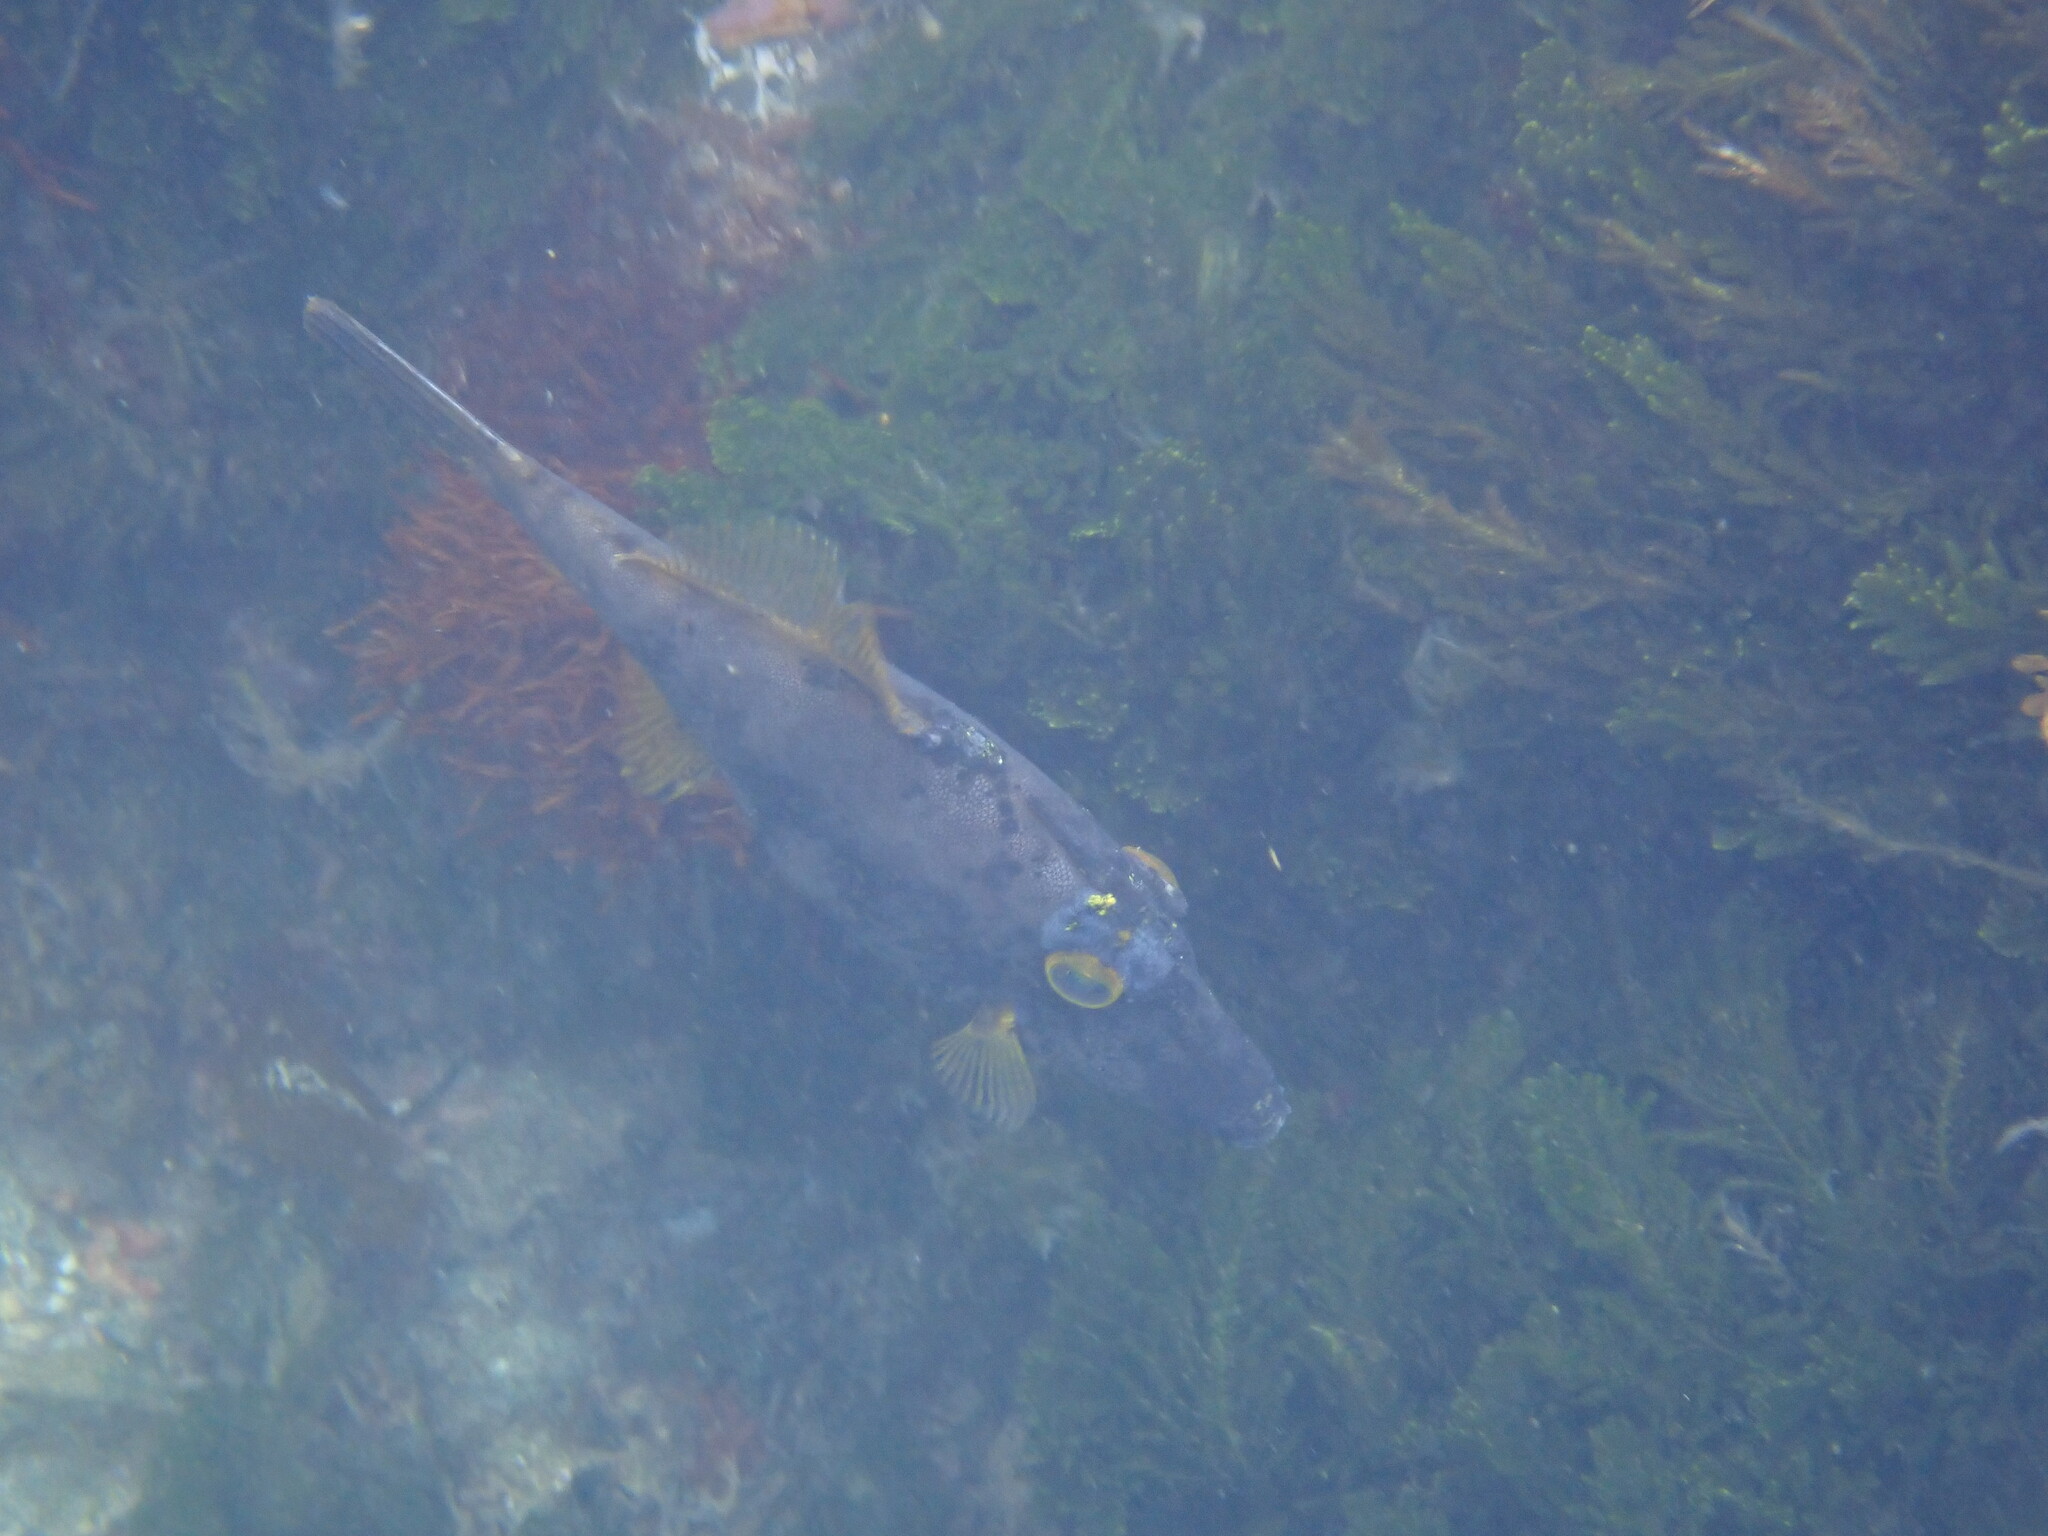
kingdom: Animalia
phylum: Chordata
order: Tetraodontiformes
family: Monacanthidae
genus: Meuschenia
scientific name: Meuschenia scaber
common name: Cosmopolitan leatherjacket
